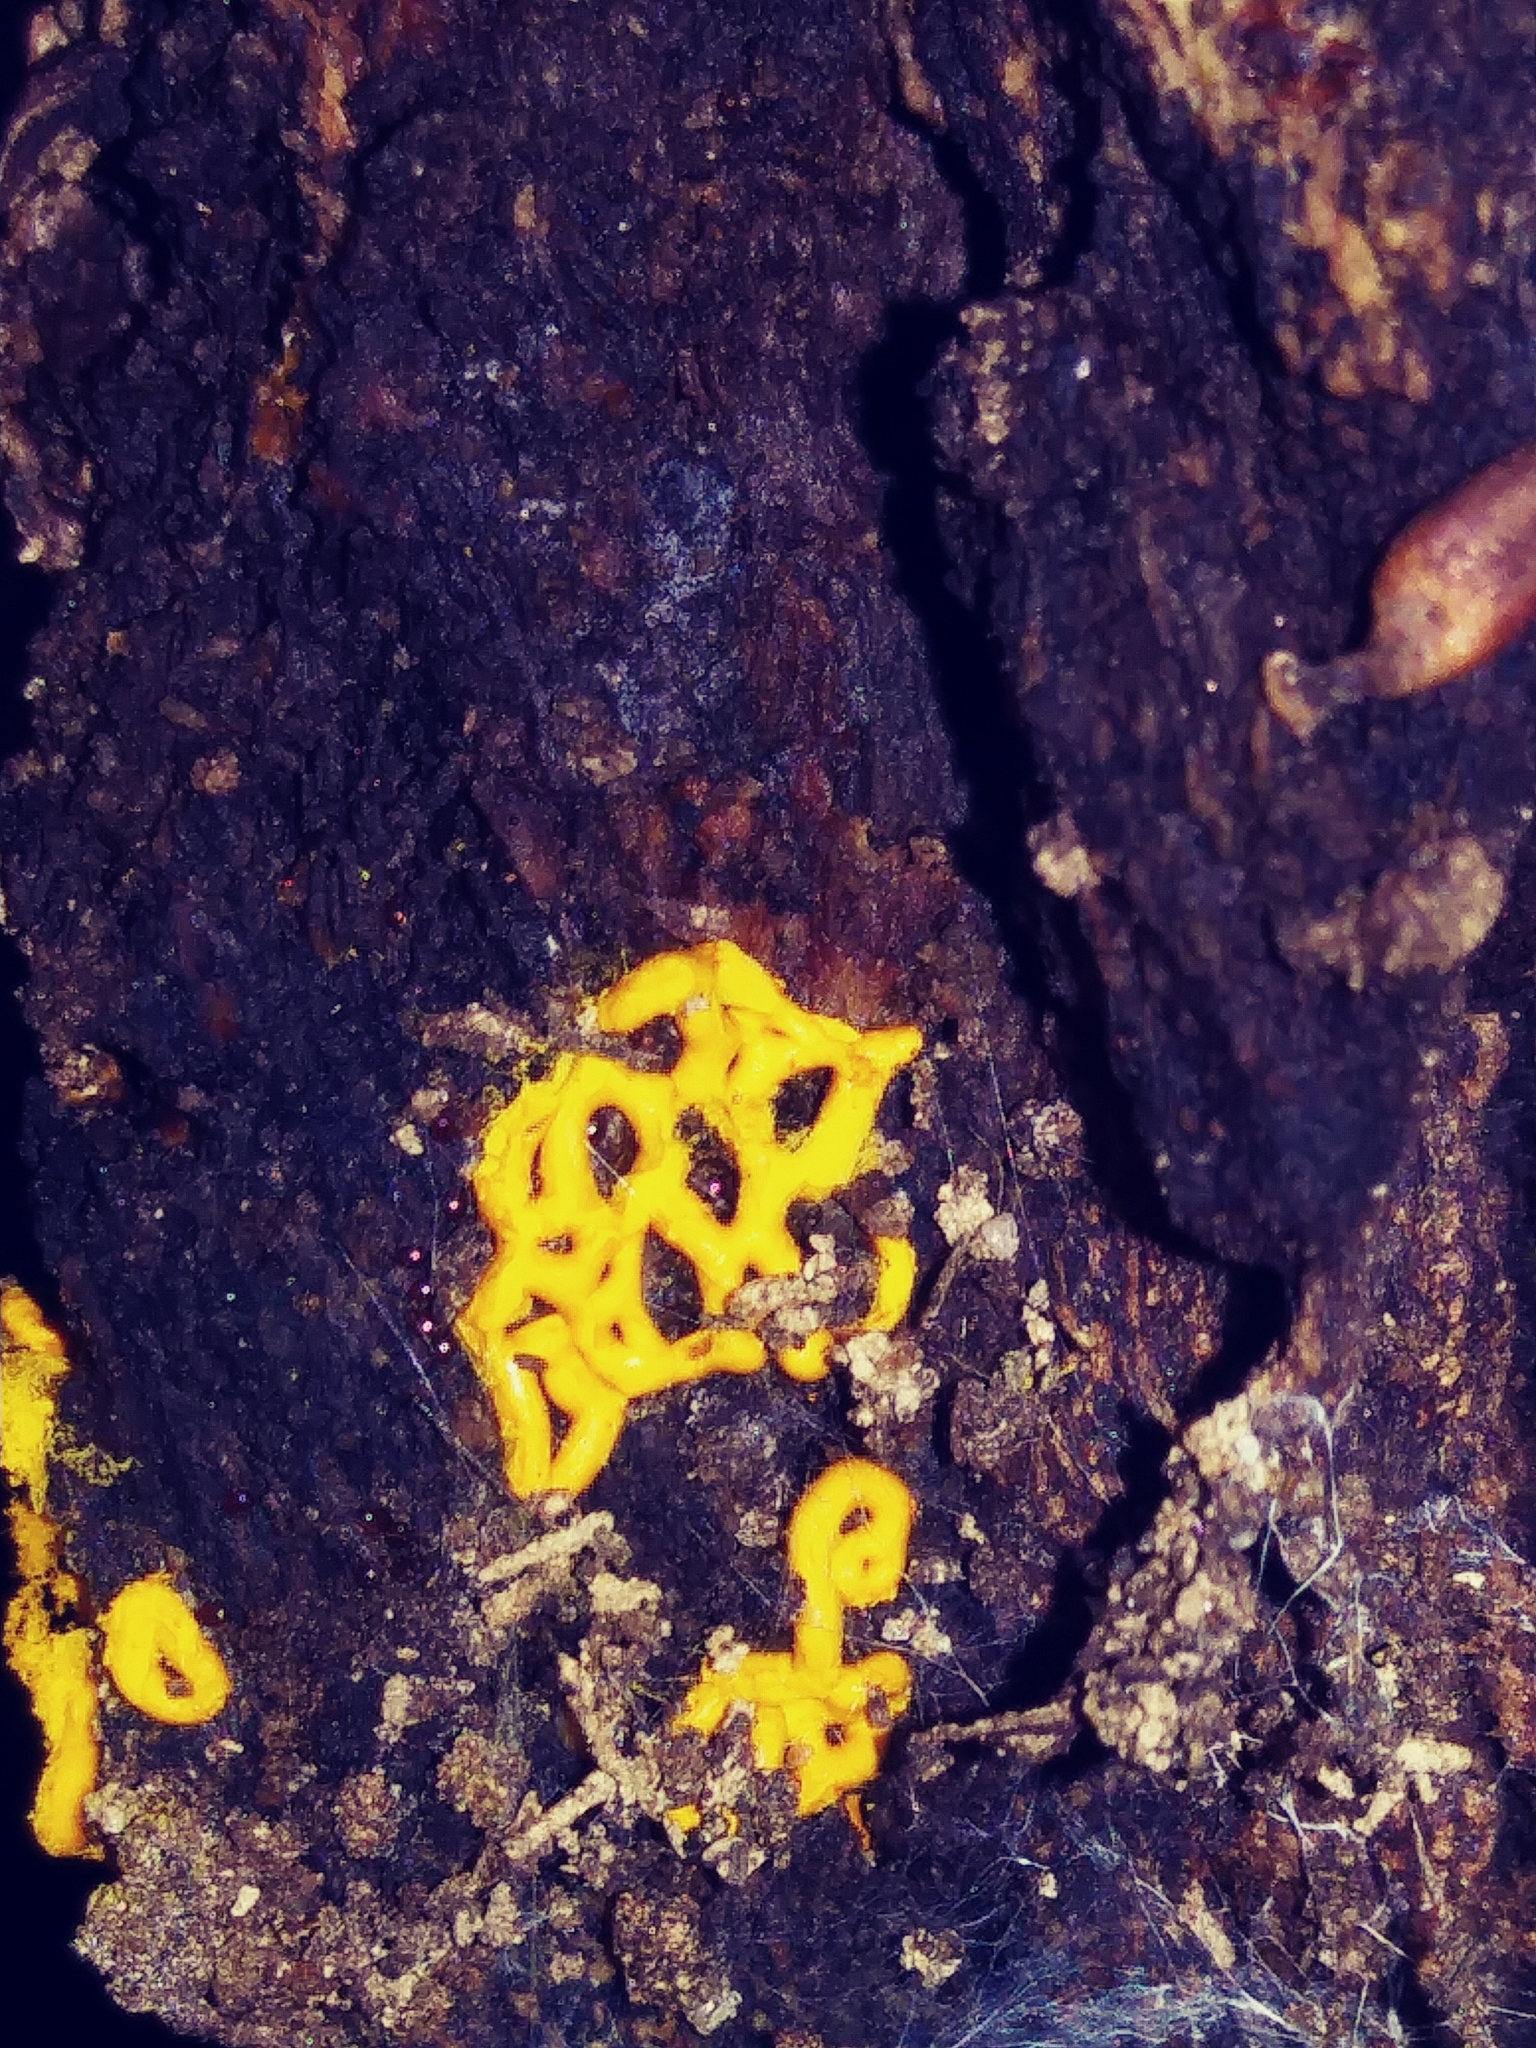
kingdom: Protozoa
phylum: Mycetozoa
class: Myxomycetes
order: Trichiales
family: Arcyriaceae
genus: Hemitrichia
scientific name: Hemitrichia serpula
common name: Pretzel slime mold
